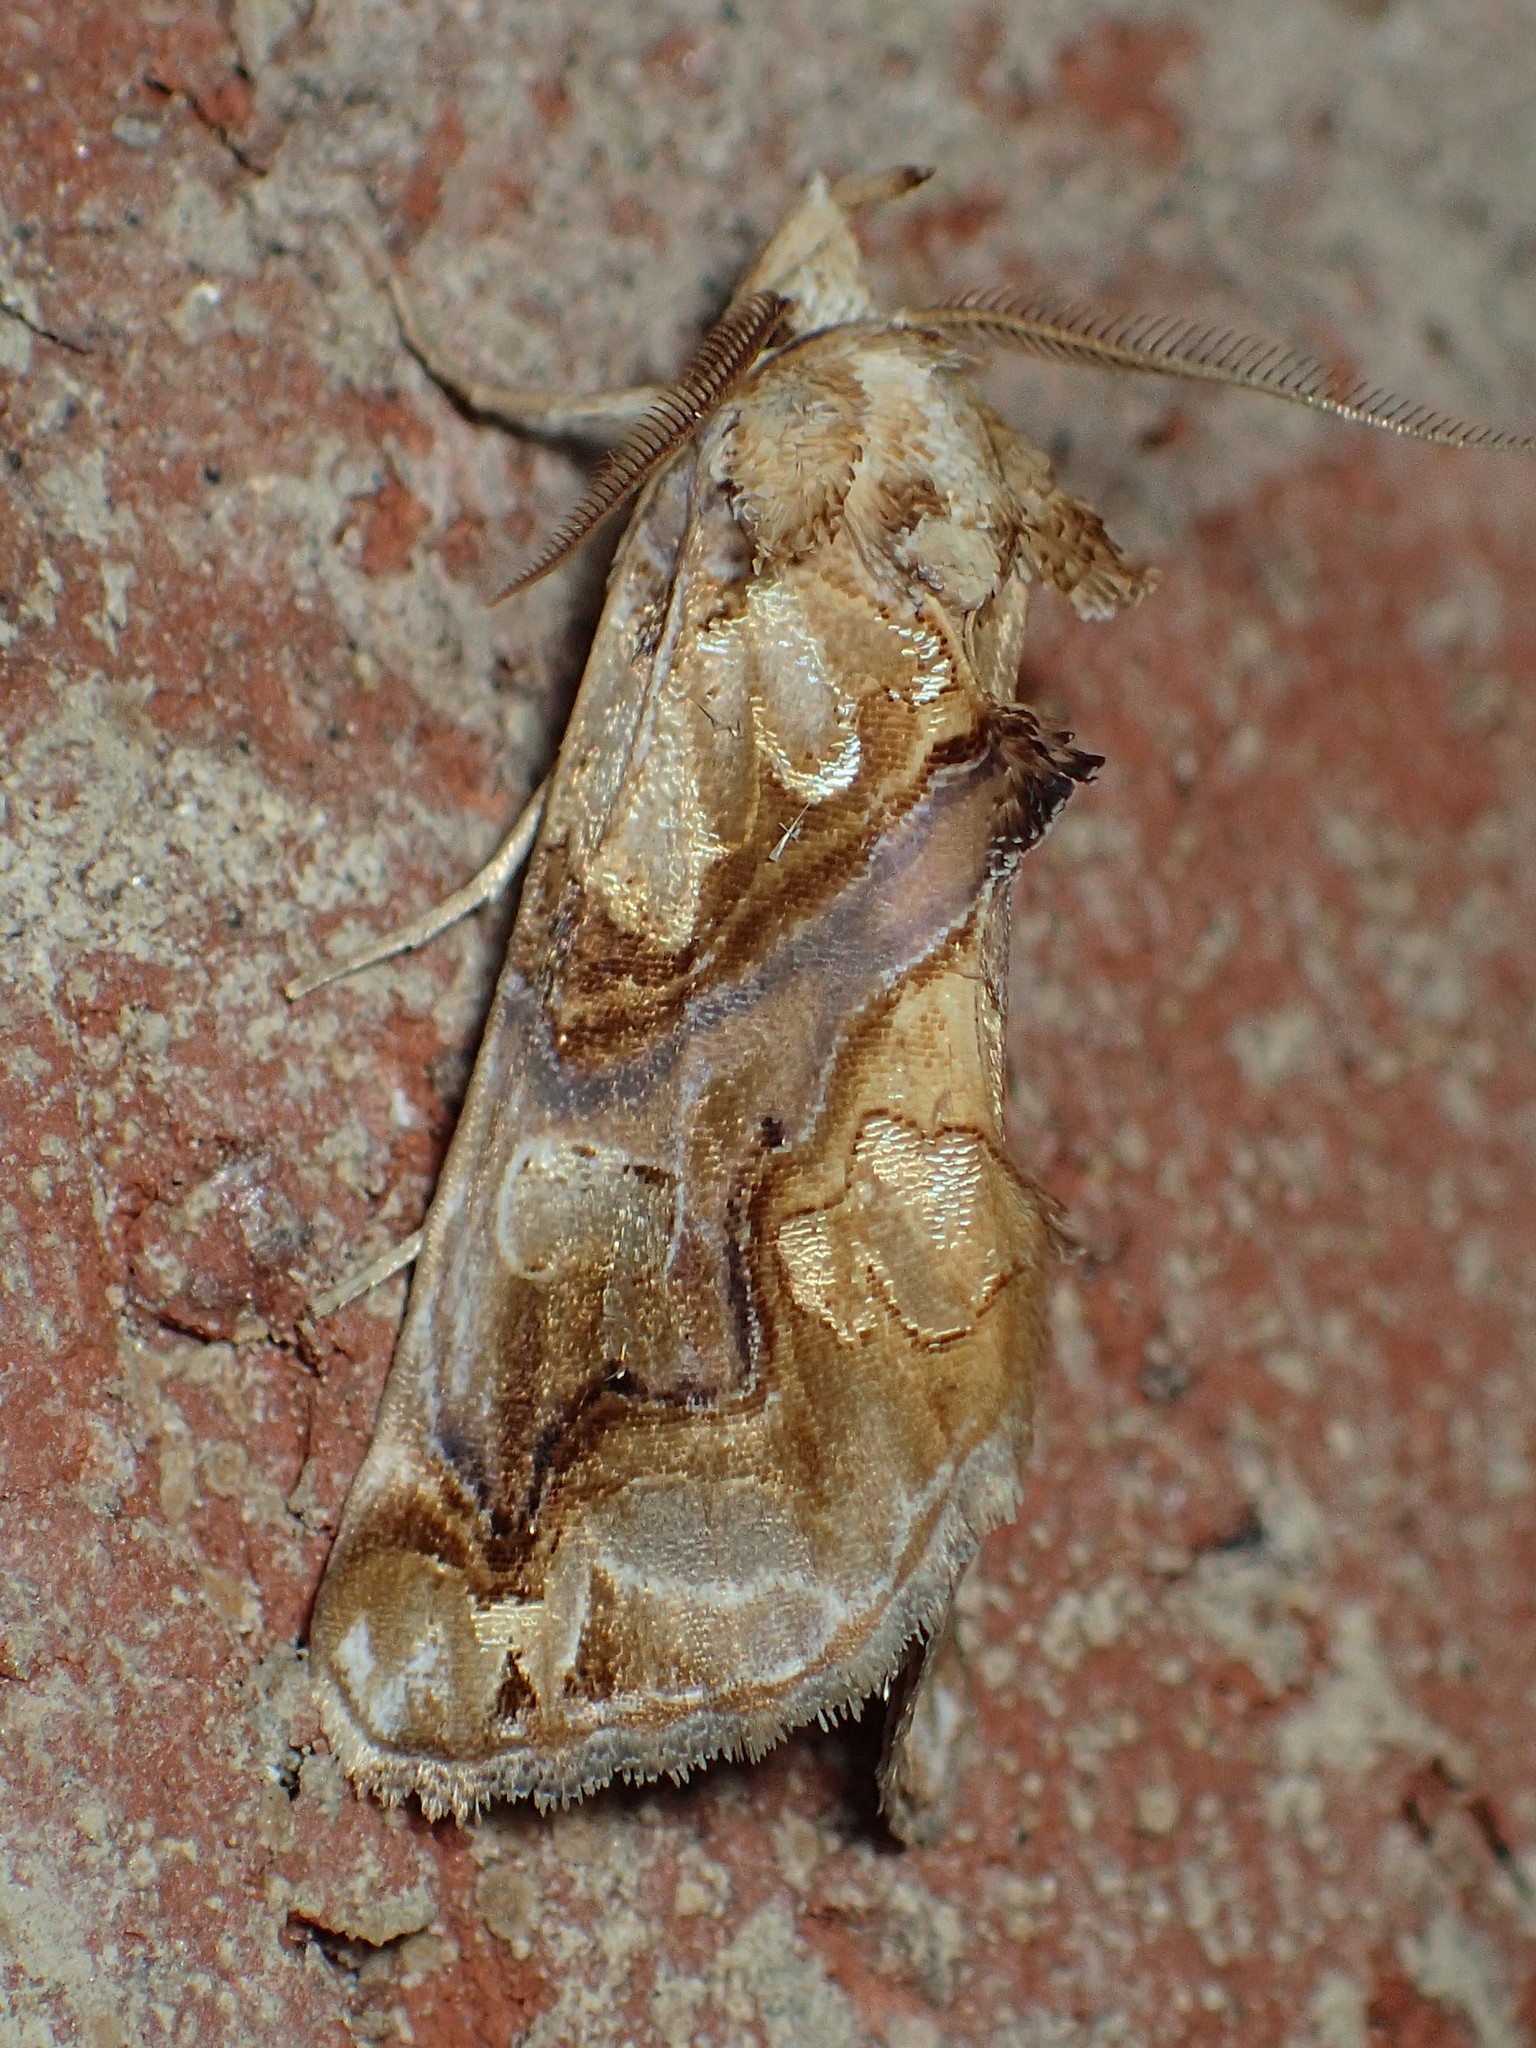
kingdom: Animalia
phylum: Arthropoda
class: Insecta
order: Lepidoptera
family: Erebidae
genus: Plusiodonta
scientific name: Plusiodonta compressipalpis
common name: Moonseed moth
